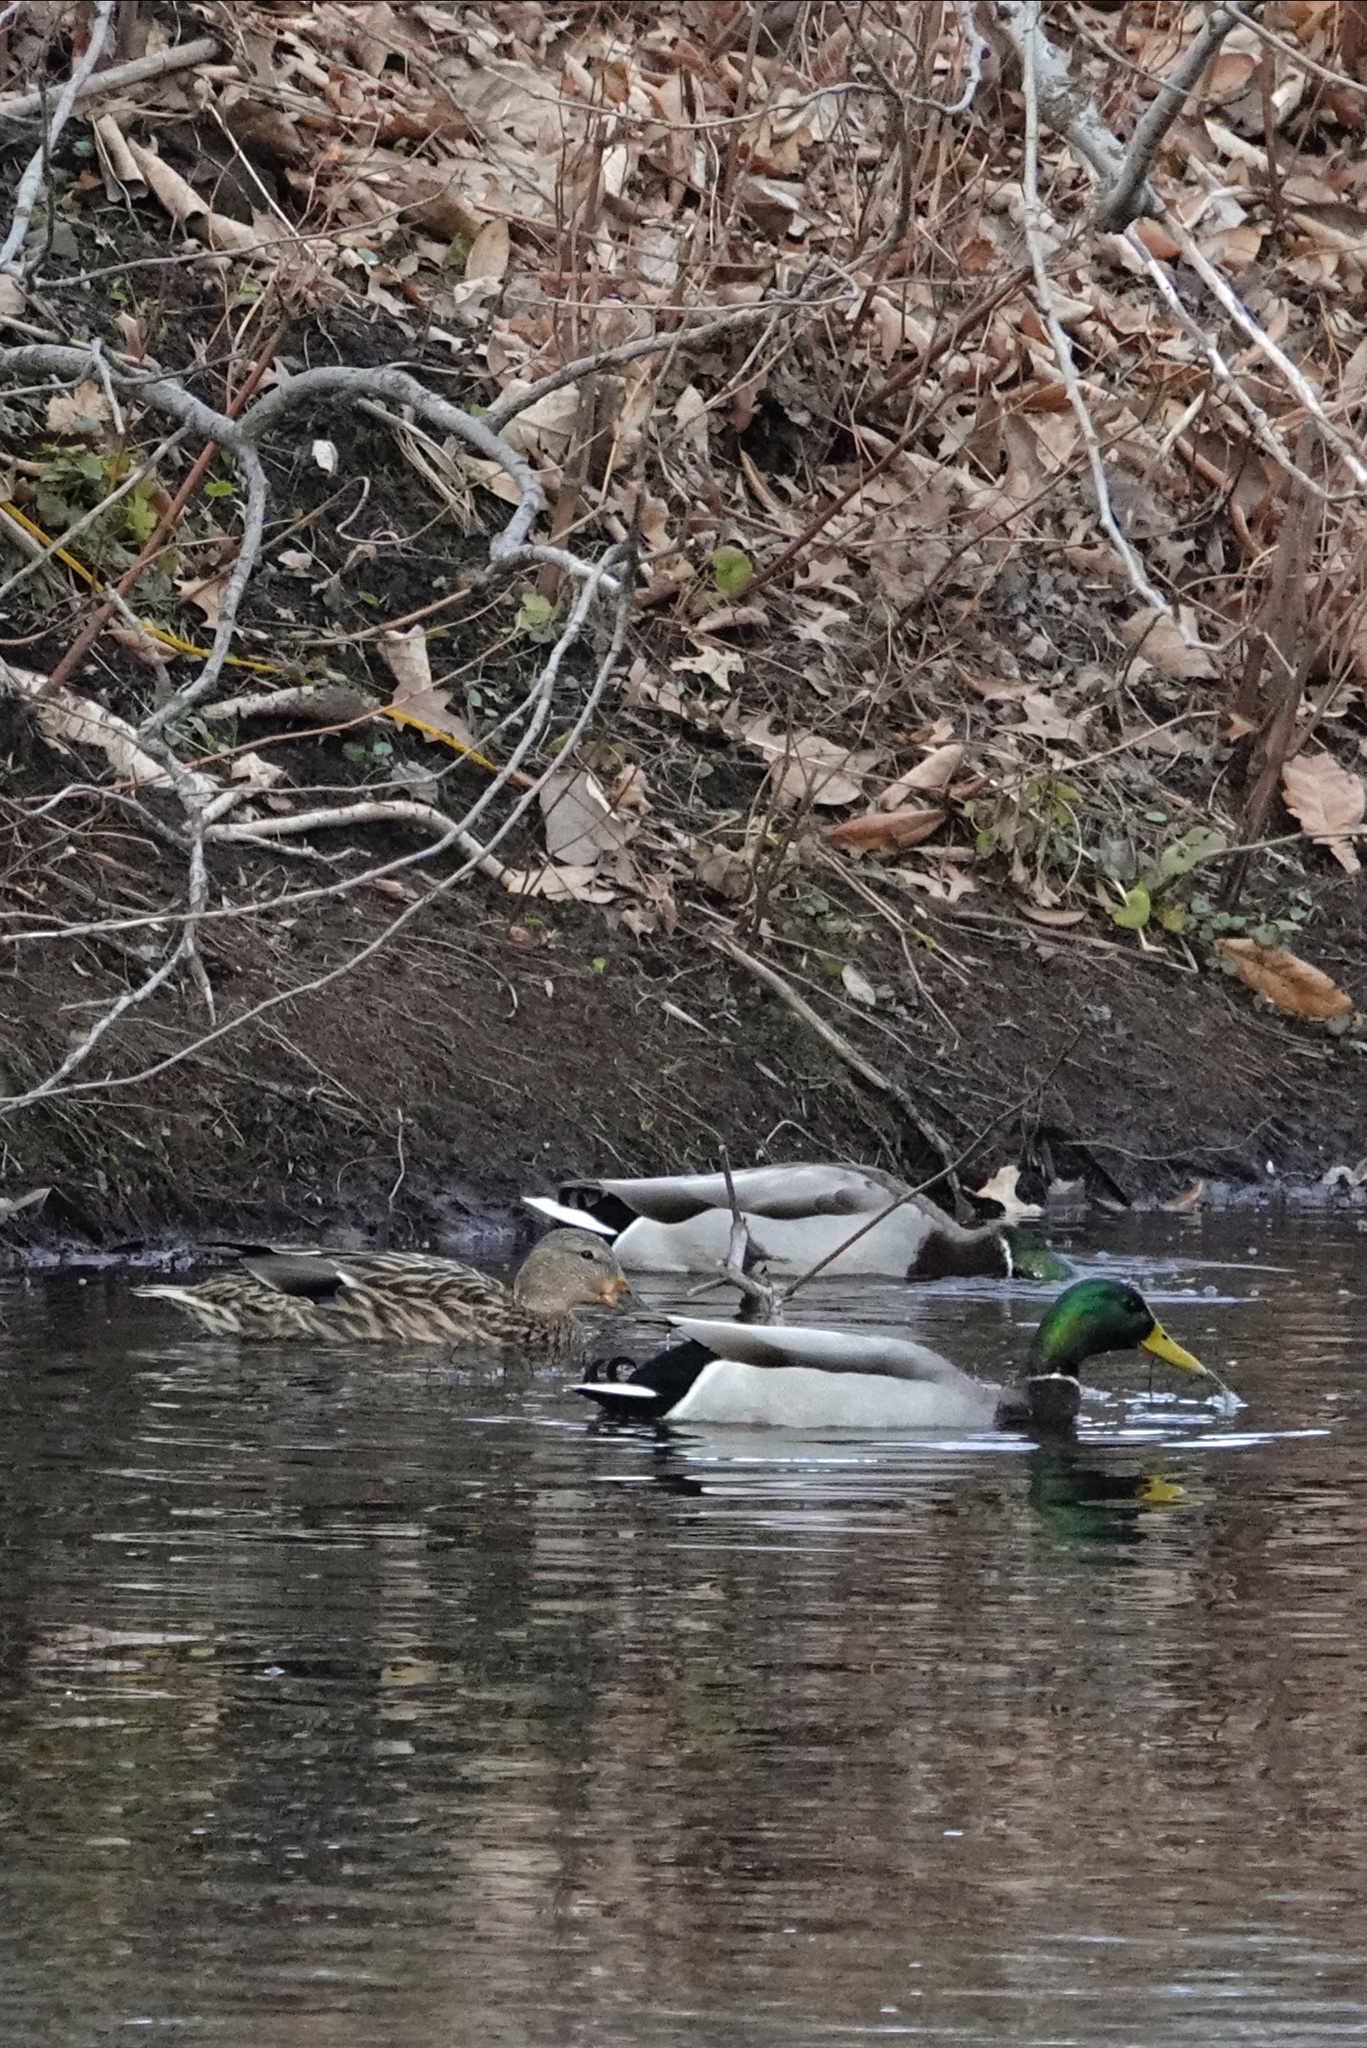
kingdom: Animalia
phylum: Chordata
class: Aves
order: Anseriformes
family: Anatidae
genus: Anas
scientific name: Anas platyrhynchos
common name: Mallard
